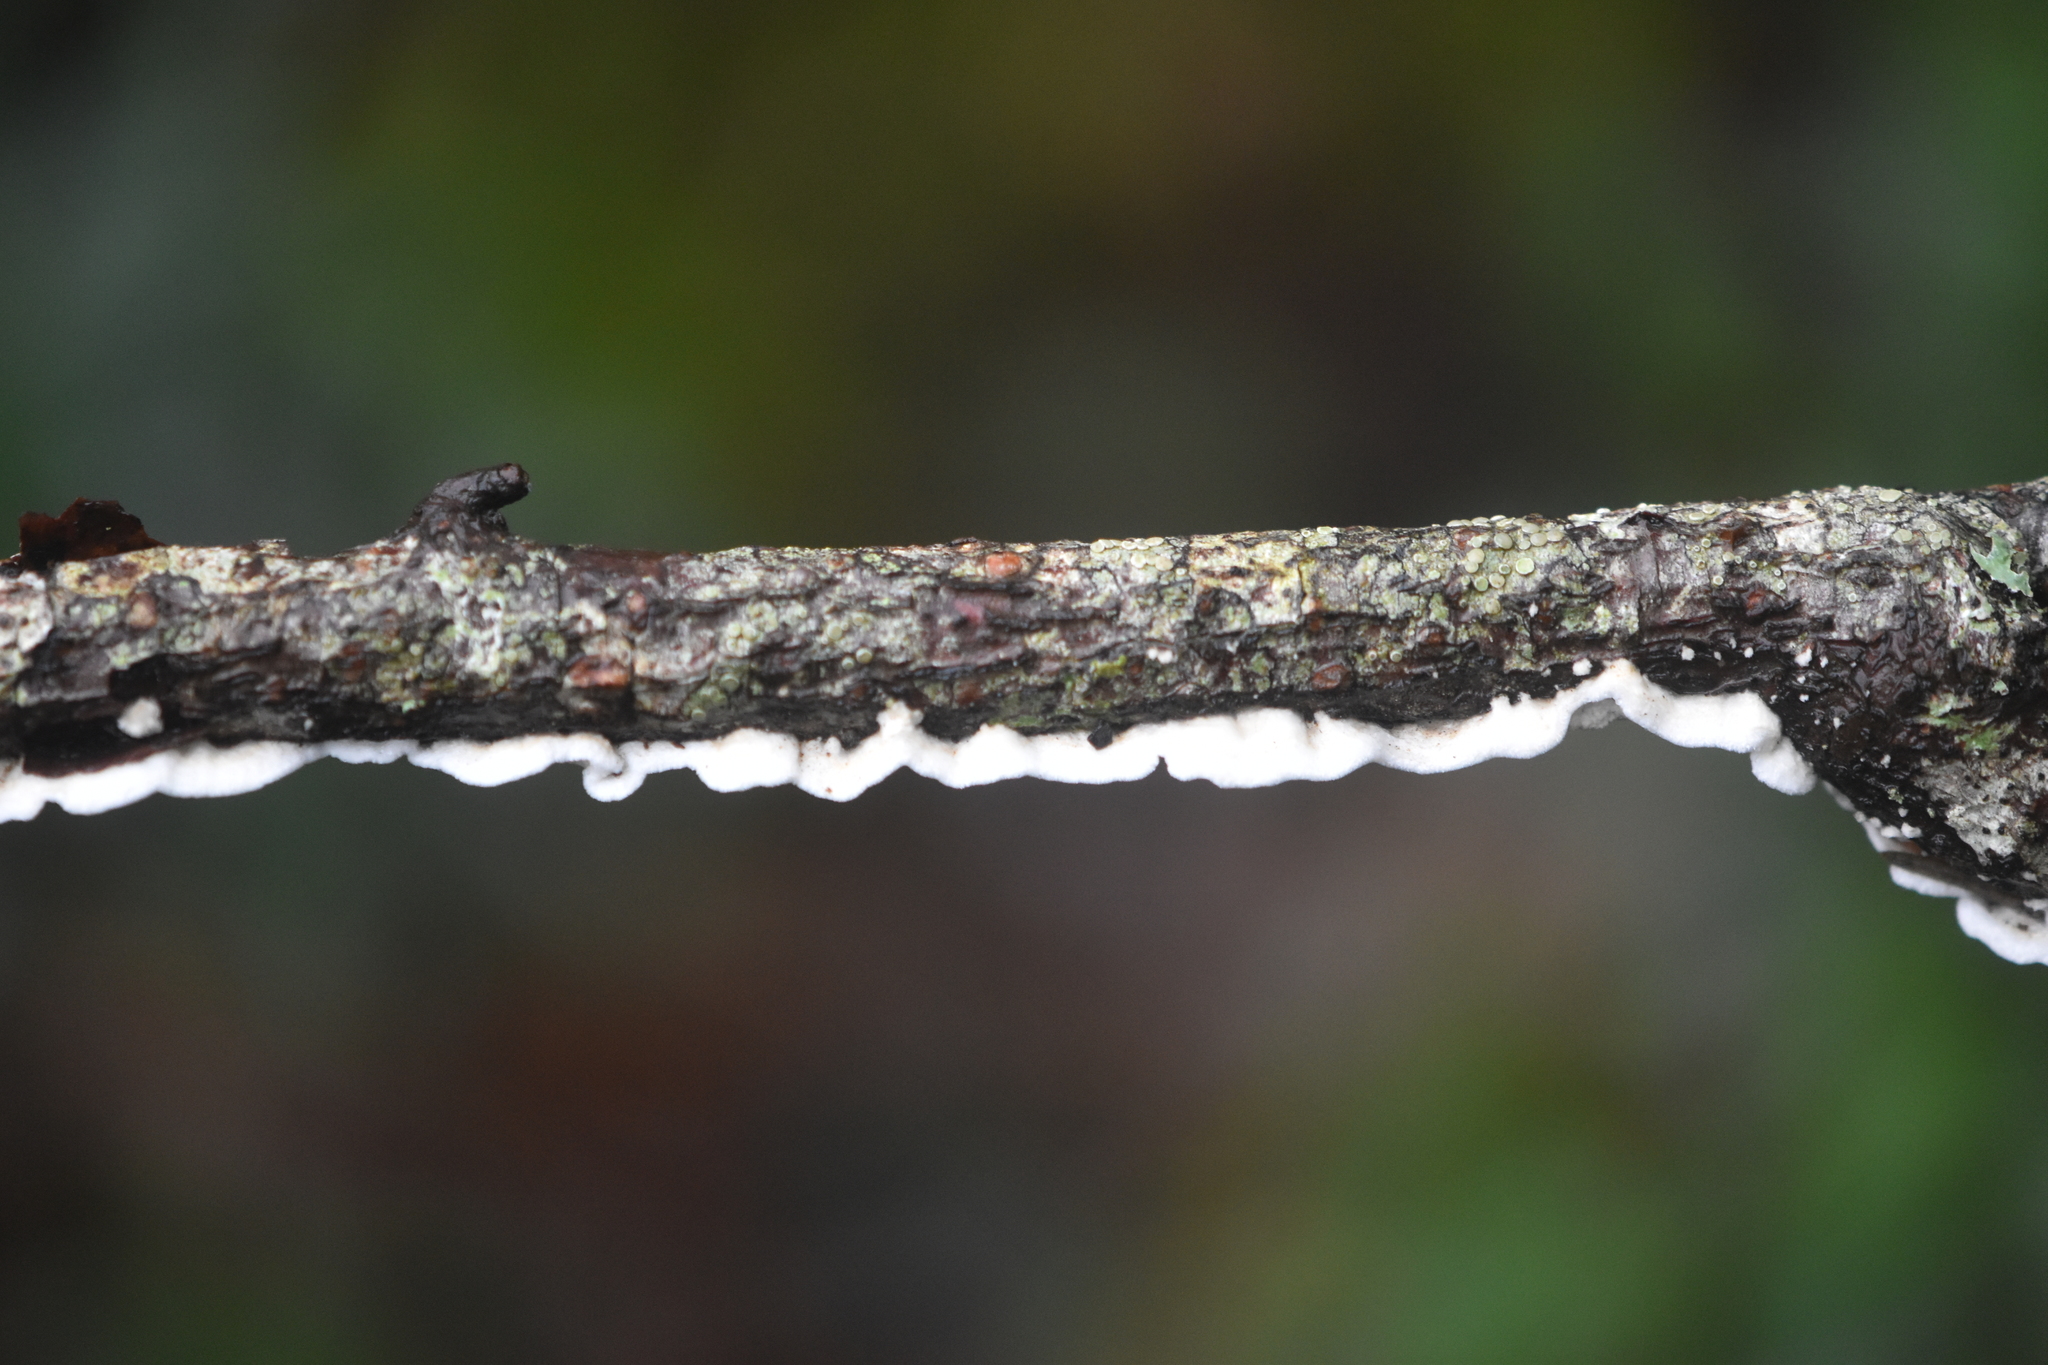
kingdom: Fungi
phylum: Basidiomycota
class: Agaricomycetes
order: Polyporales
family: Irpicaceae
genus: Byssomerulius
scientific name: Byssomerulius corium
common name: Netted crust
